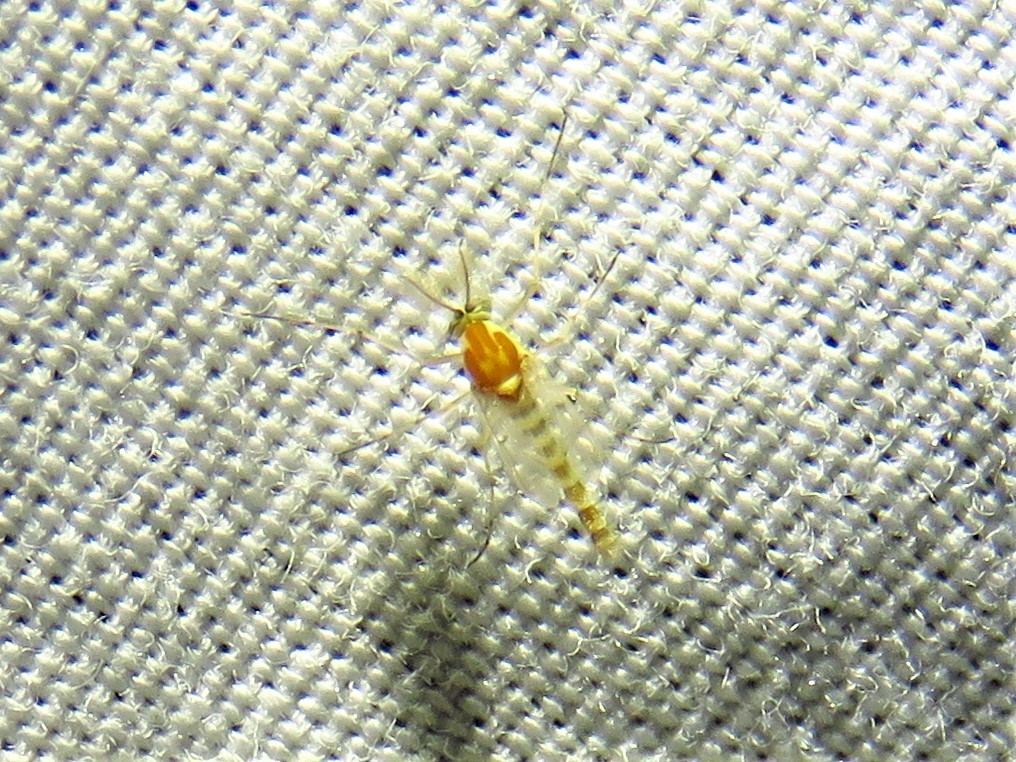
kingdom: Animalia
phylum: Arthropoda
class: Insecta
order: Diptera
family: Chironomidae
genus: Procladius
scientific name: Procladius bellus
